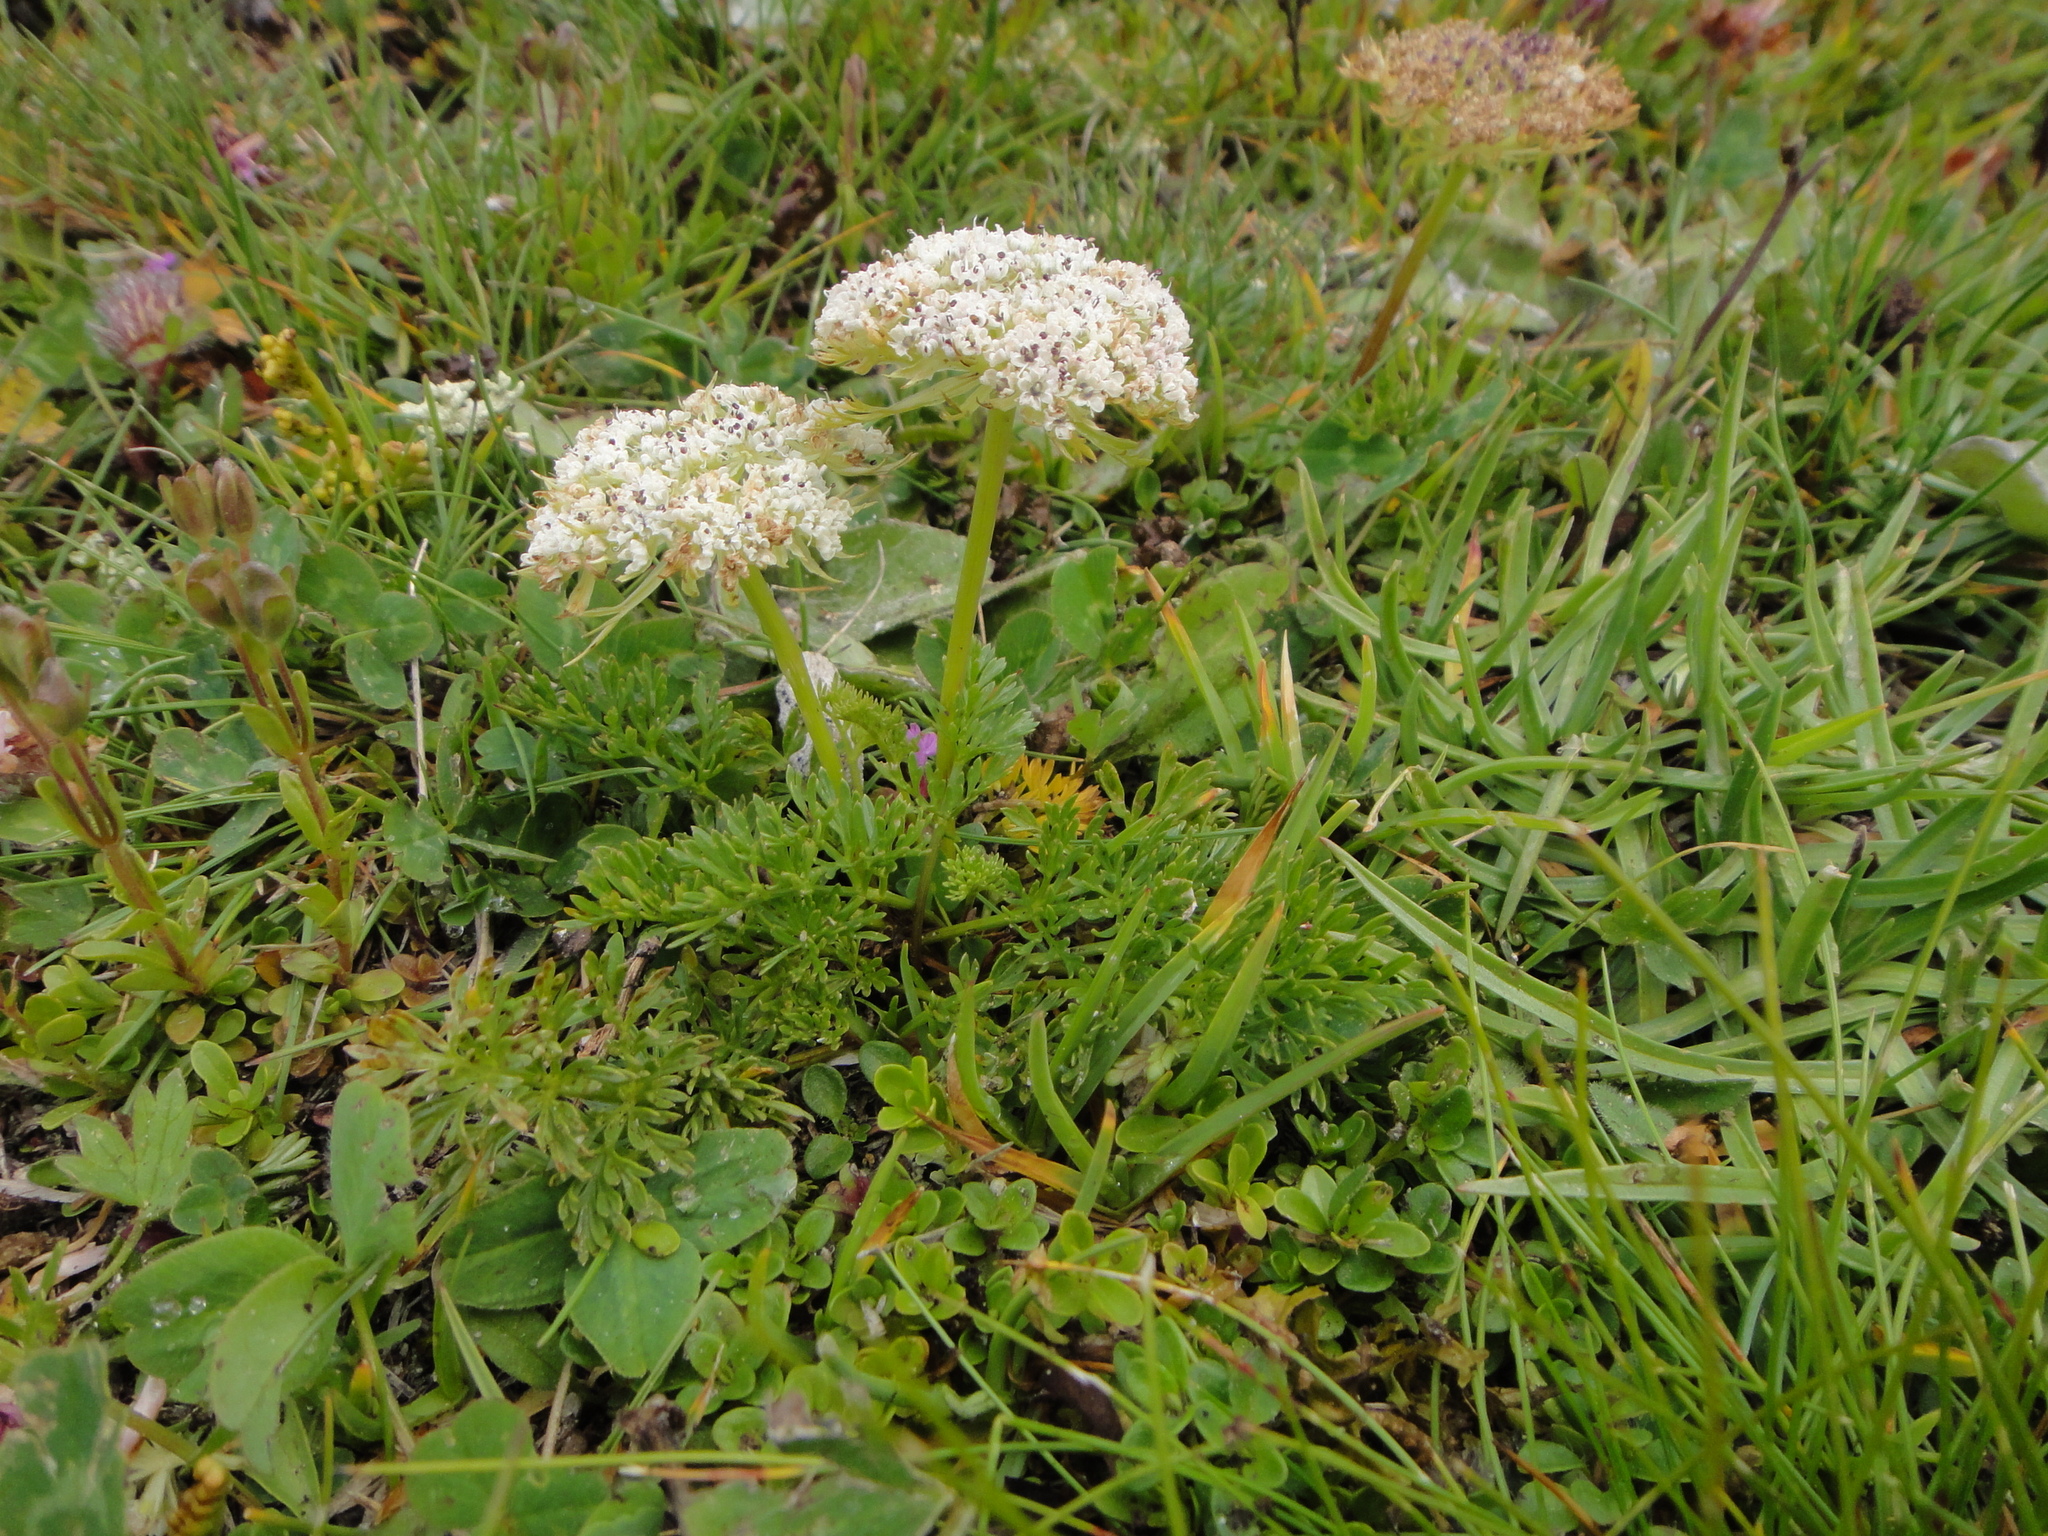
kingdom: Plantae
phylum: Tracheophyta
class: Magnoliopsida
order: Apiales
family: Apiaceae
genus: Pachypleurum
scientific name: Pachypleurum mutellinoides
